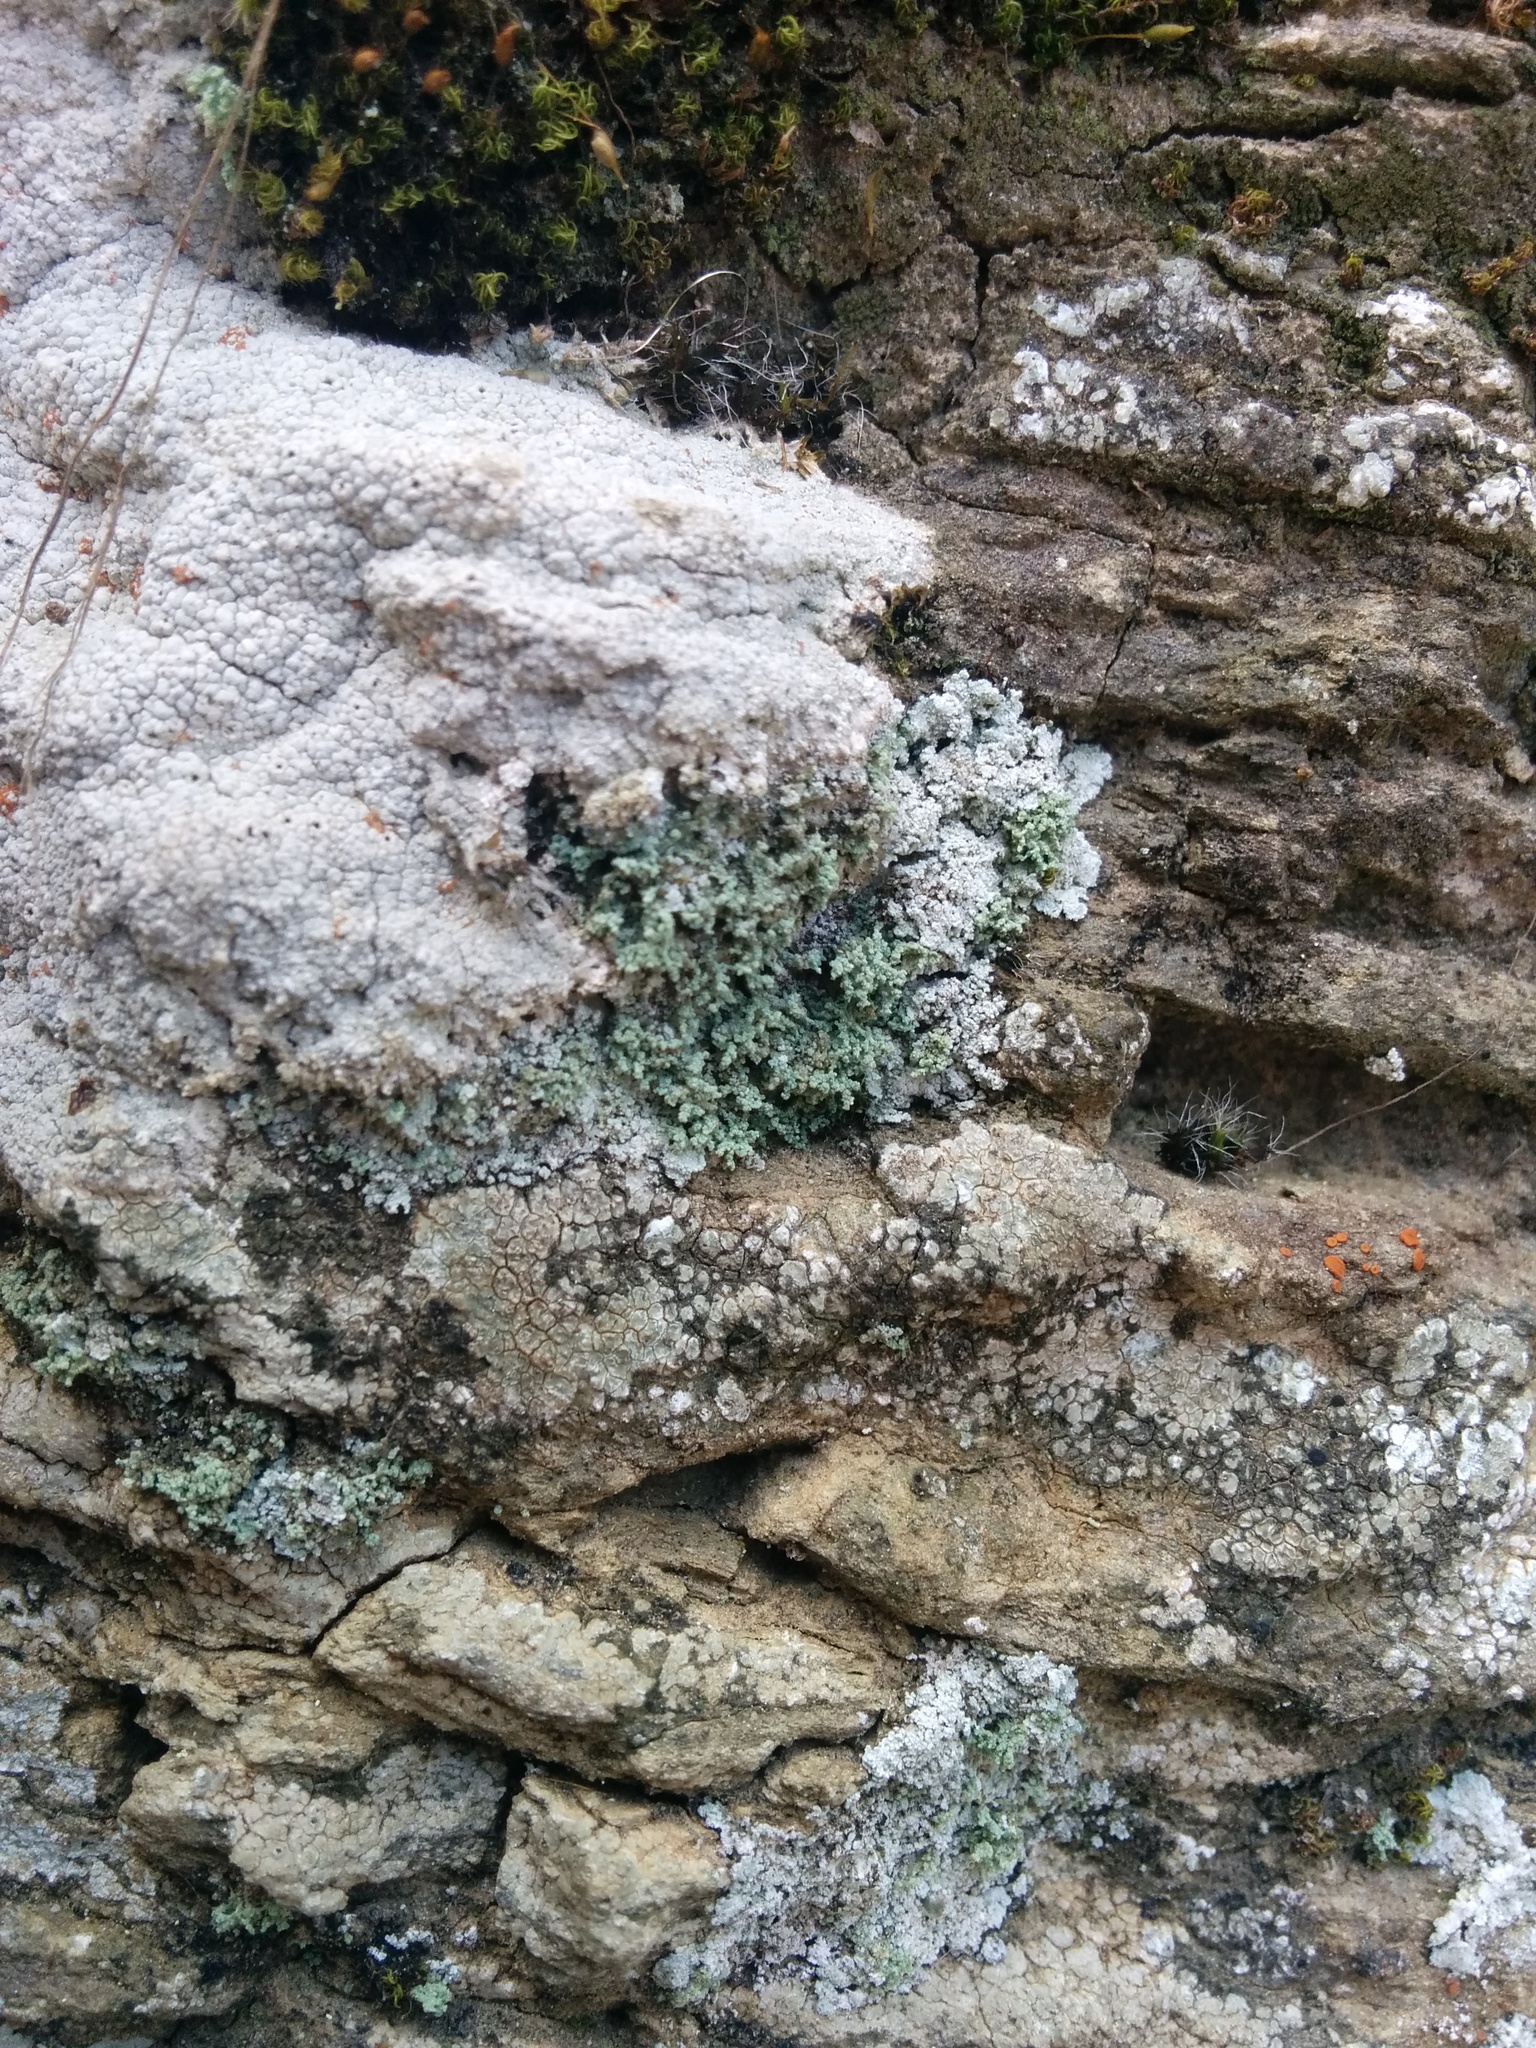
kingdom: Fungi
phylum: Ascomycota
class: Lecanoromycetes
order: Teloschistales
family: Leprocaulaceae
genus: Leprocaulon
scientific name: Leprocaulon quisquiliare
